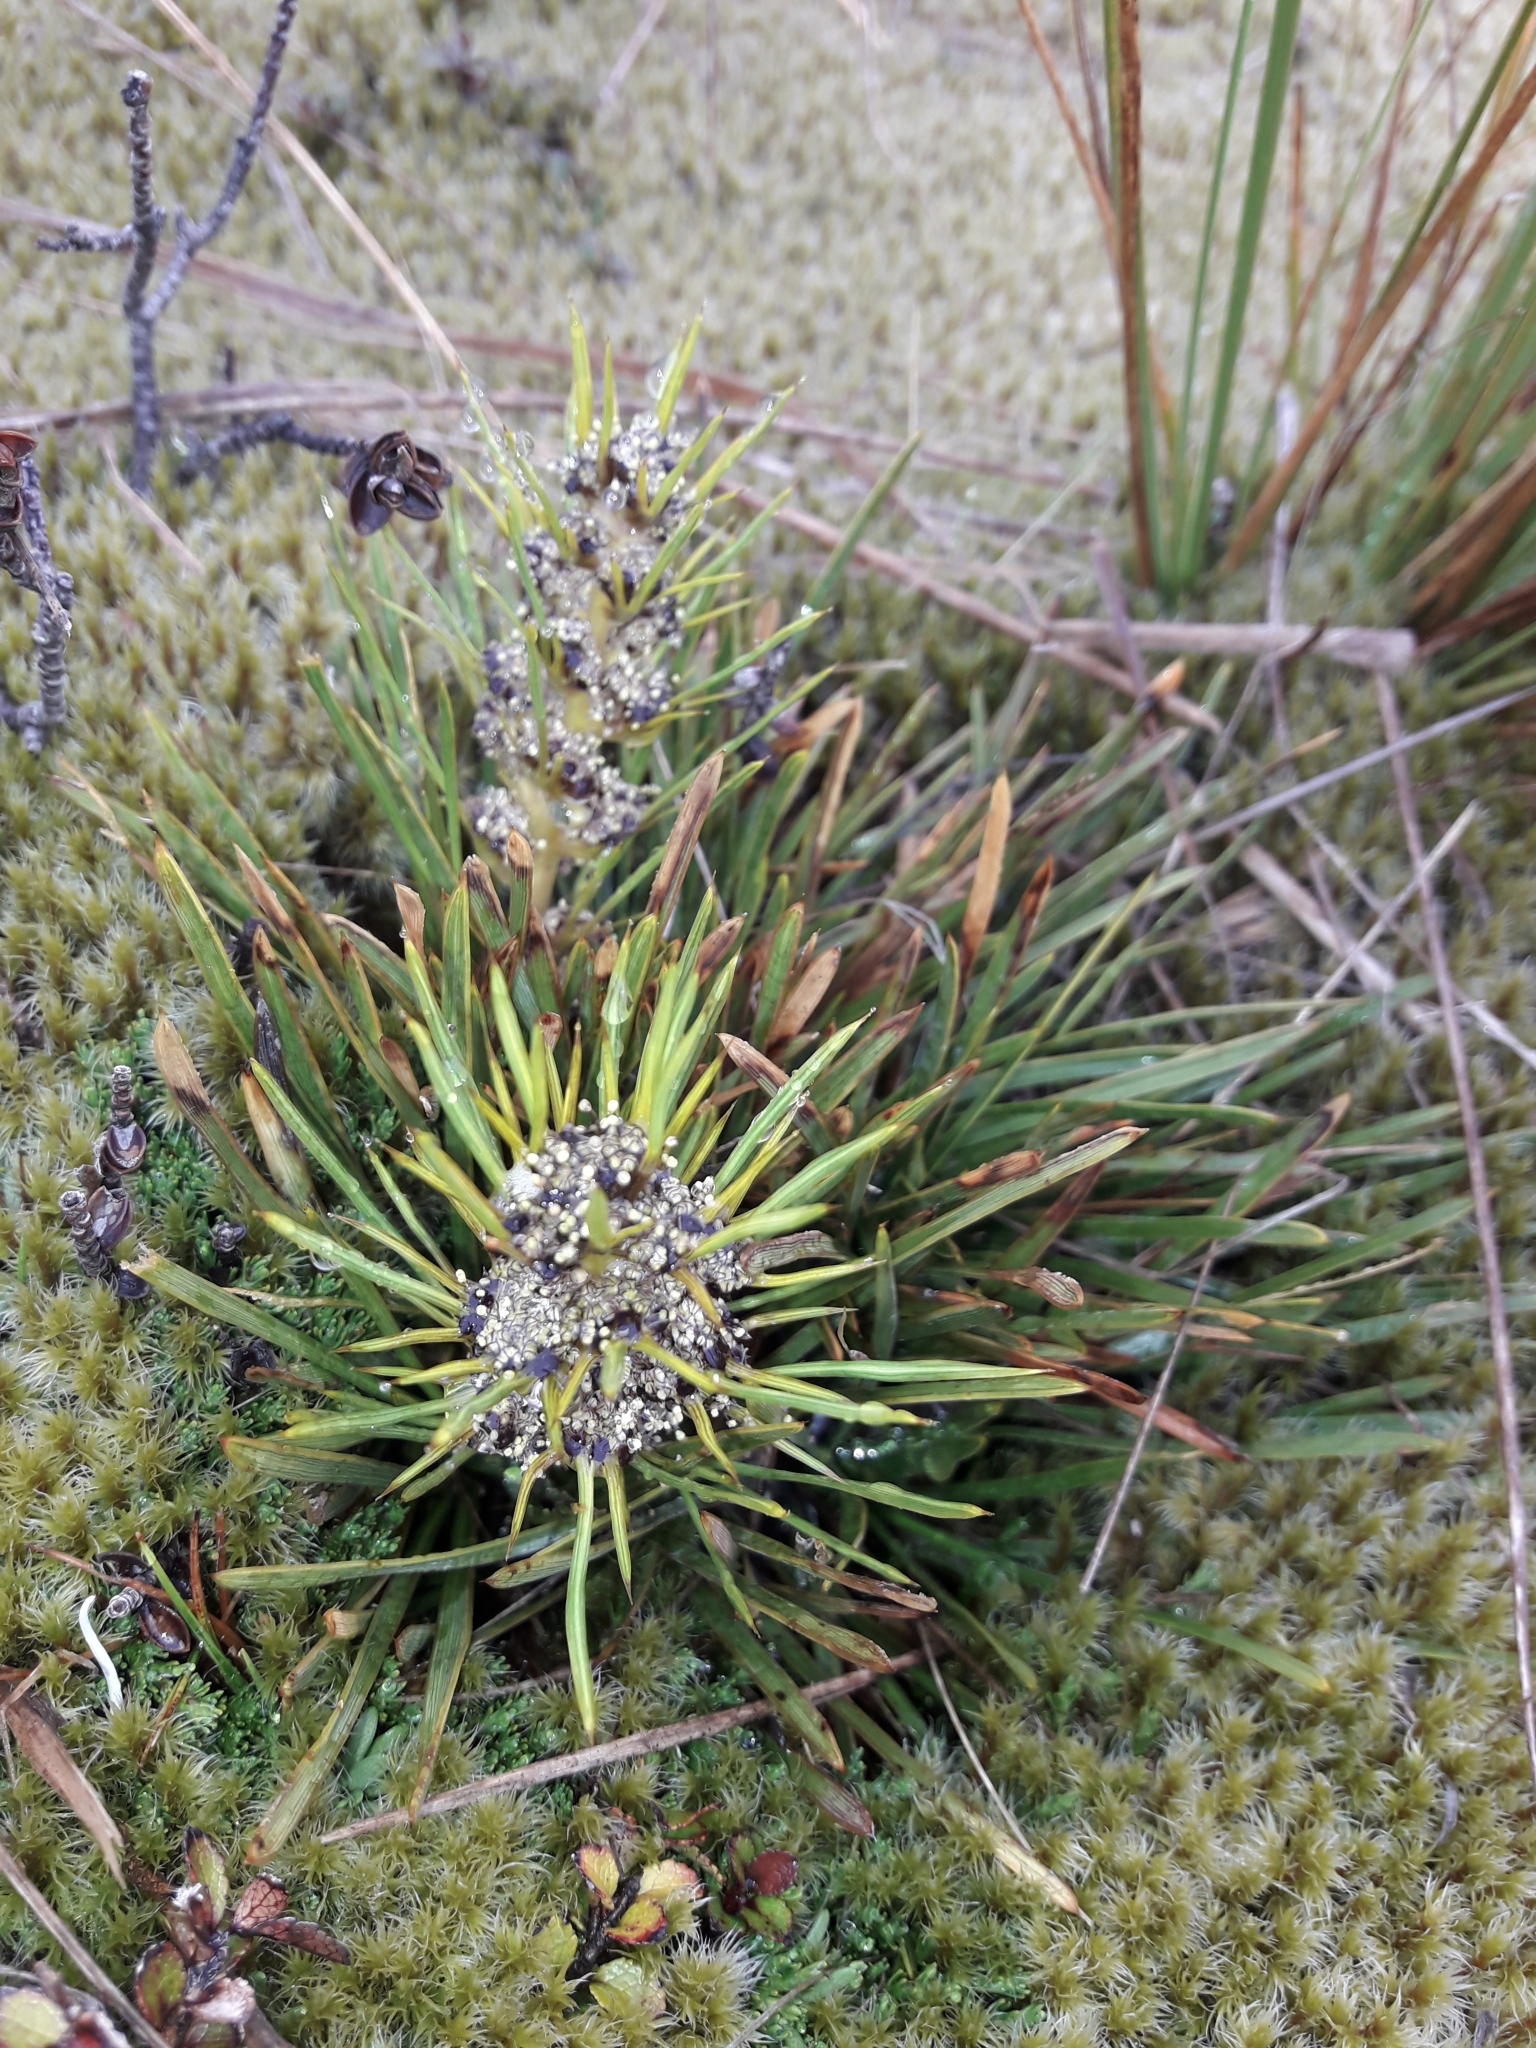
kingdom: Plantae
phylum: Tracheophyta
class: Magnoliopsida
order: Apiales
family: Apiaceae
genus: Aciphylla
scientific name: Aciphylla verticillata
